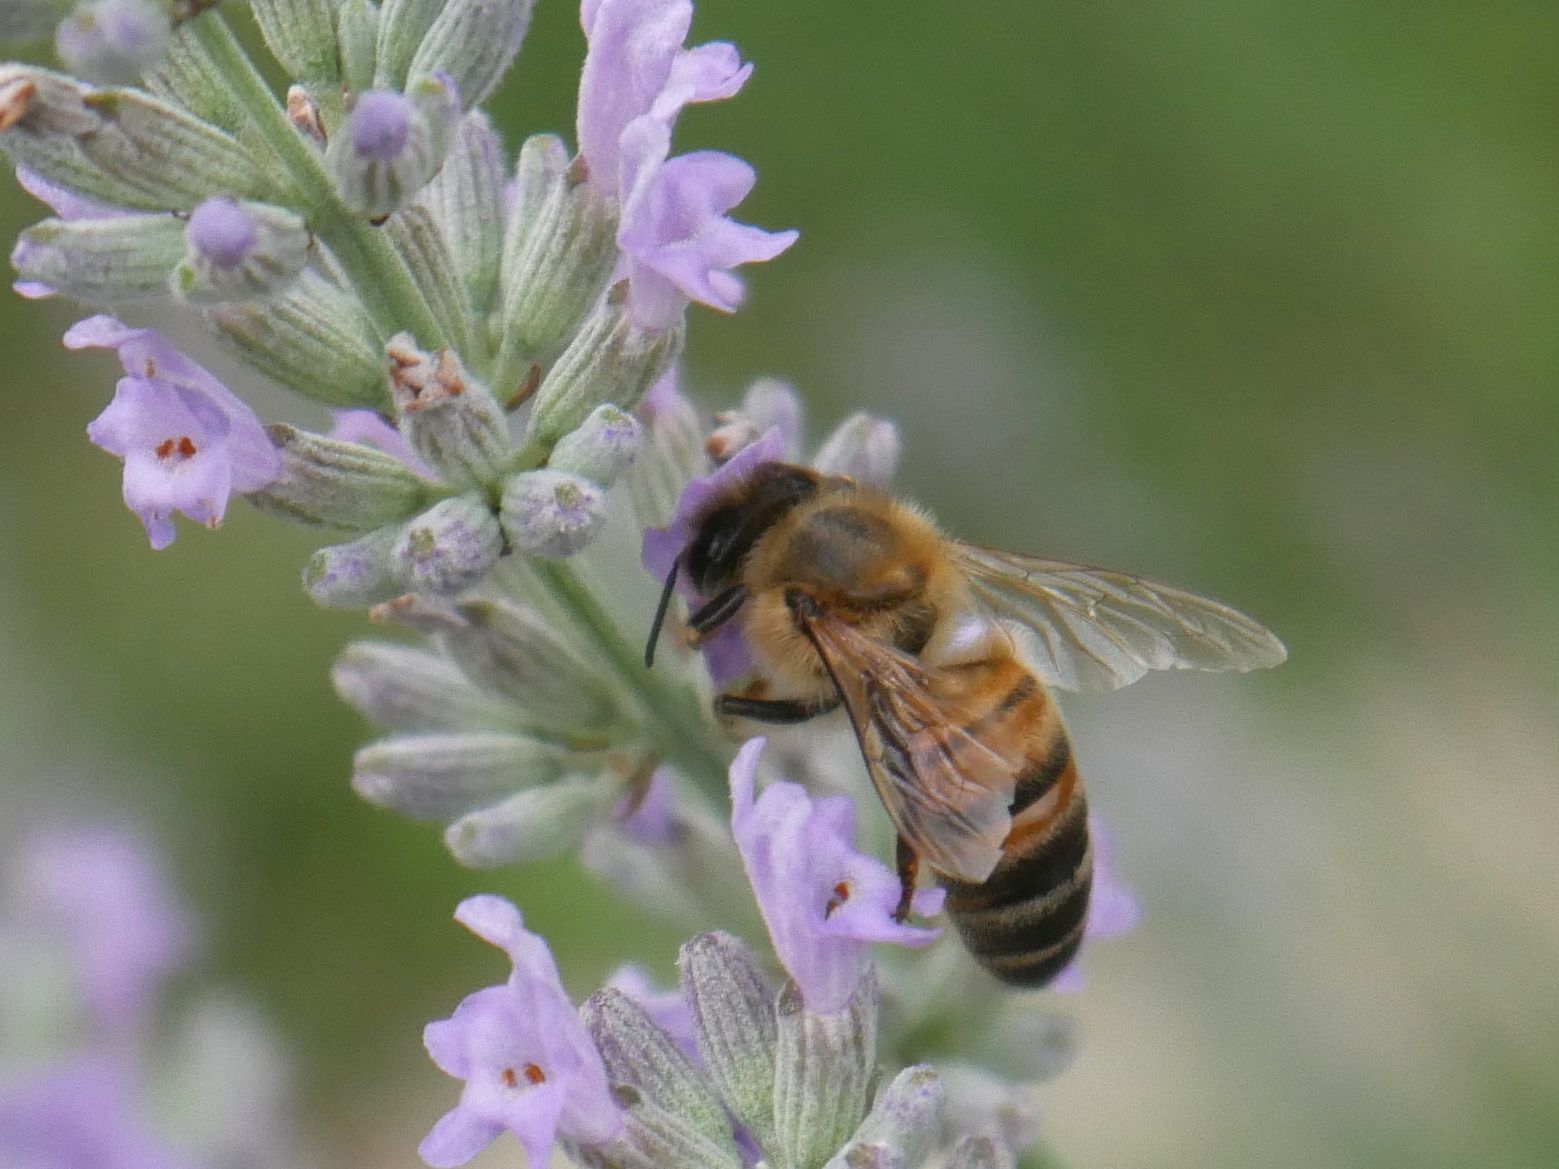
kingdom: Animalia
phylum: Arthropoda
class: Insecta
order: Hymenoptera
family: Apidae
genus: Apis
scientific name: Apis mellifera
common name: Honey bee
